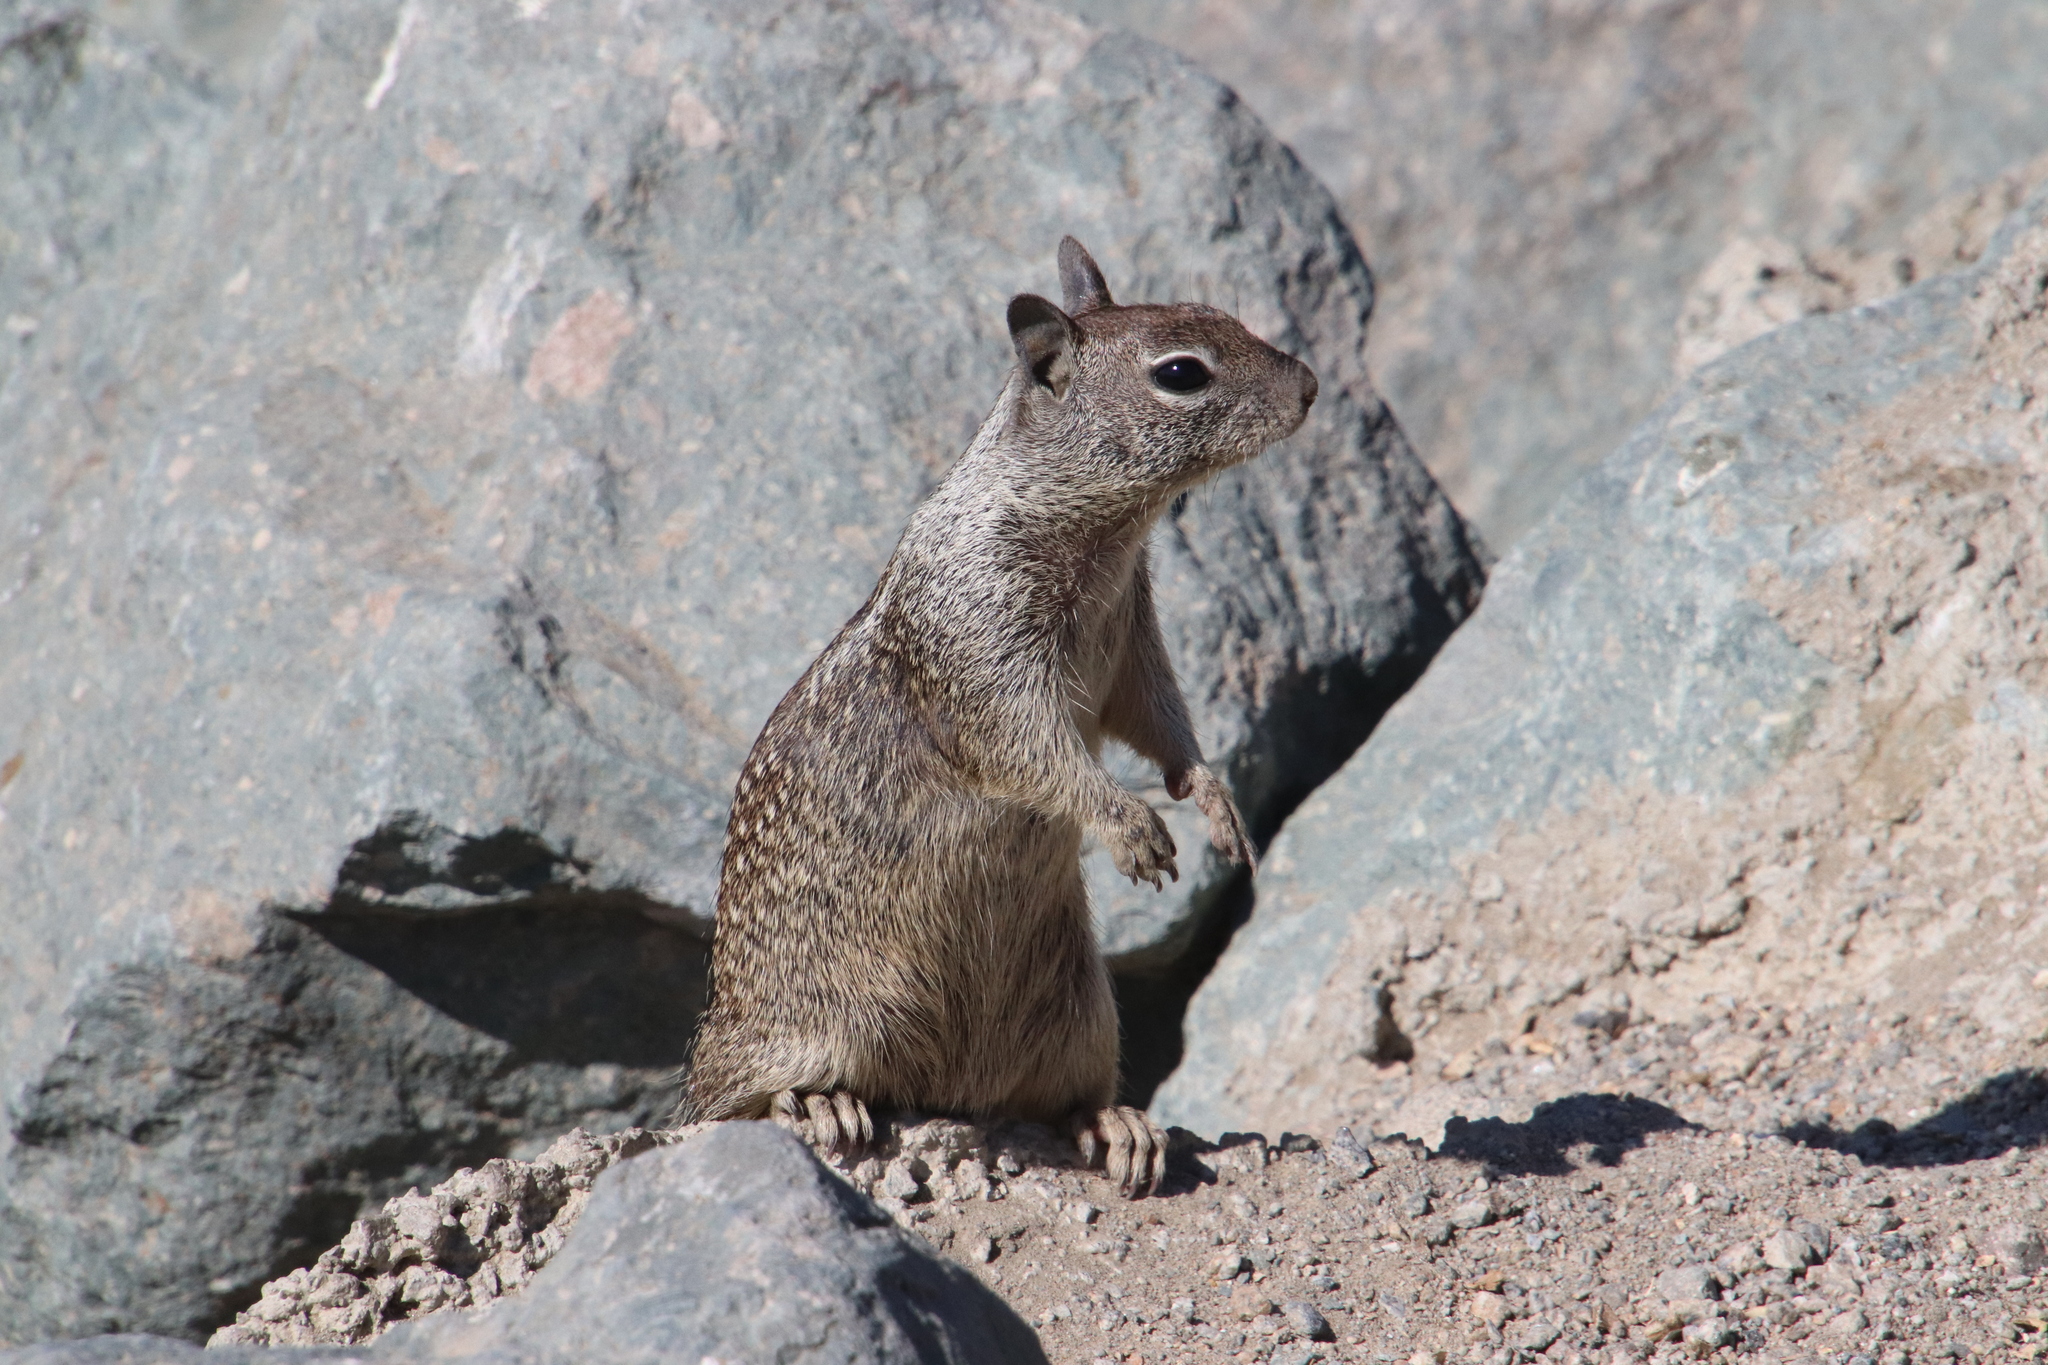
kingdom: Animalia
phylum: Chordata
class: Mammalia
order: Rodentia
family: Sciuridae
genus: Otospermophilus
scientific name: Otospermophilus beecheyi
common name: California ground squirrel
